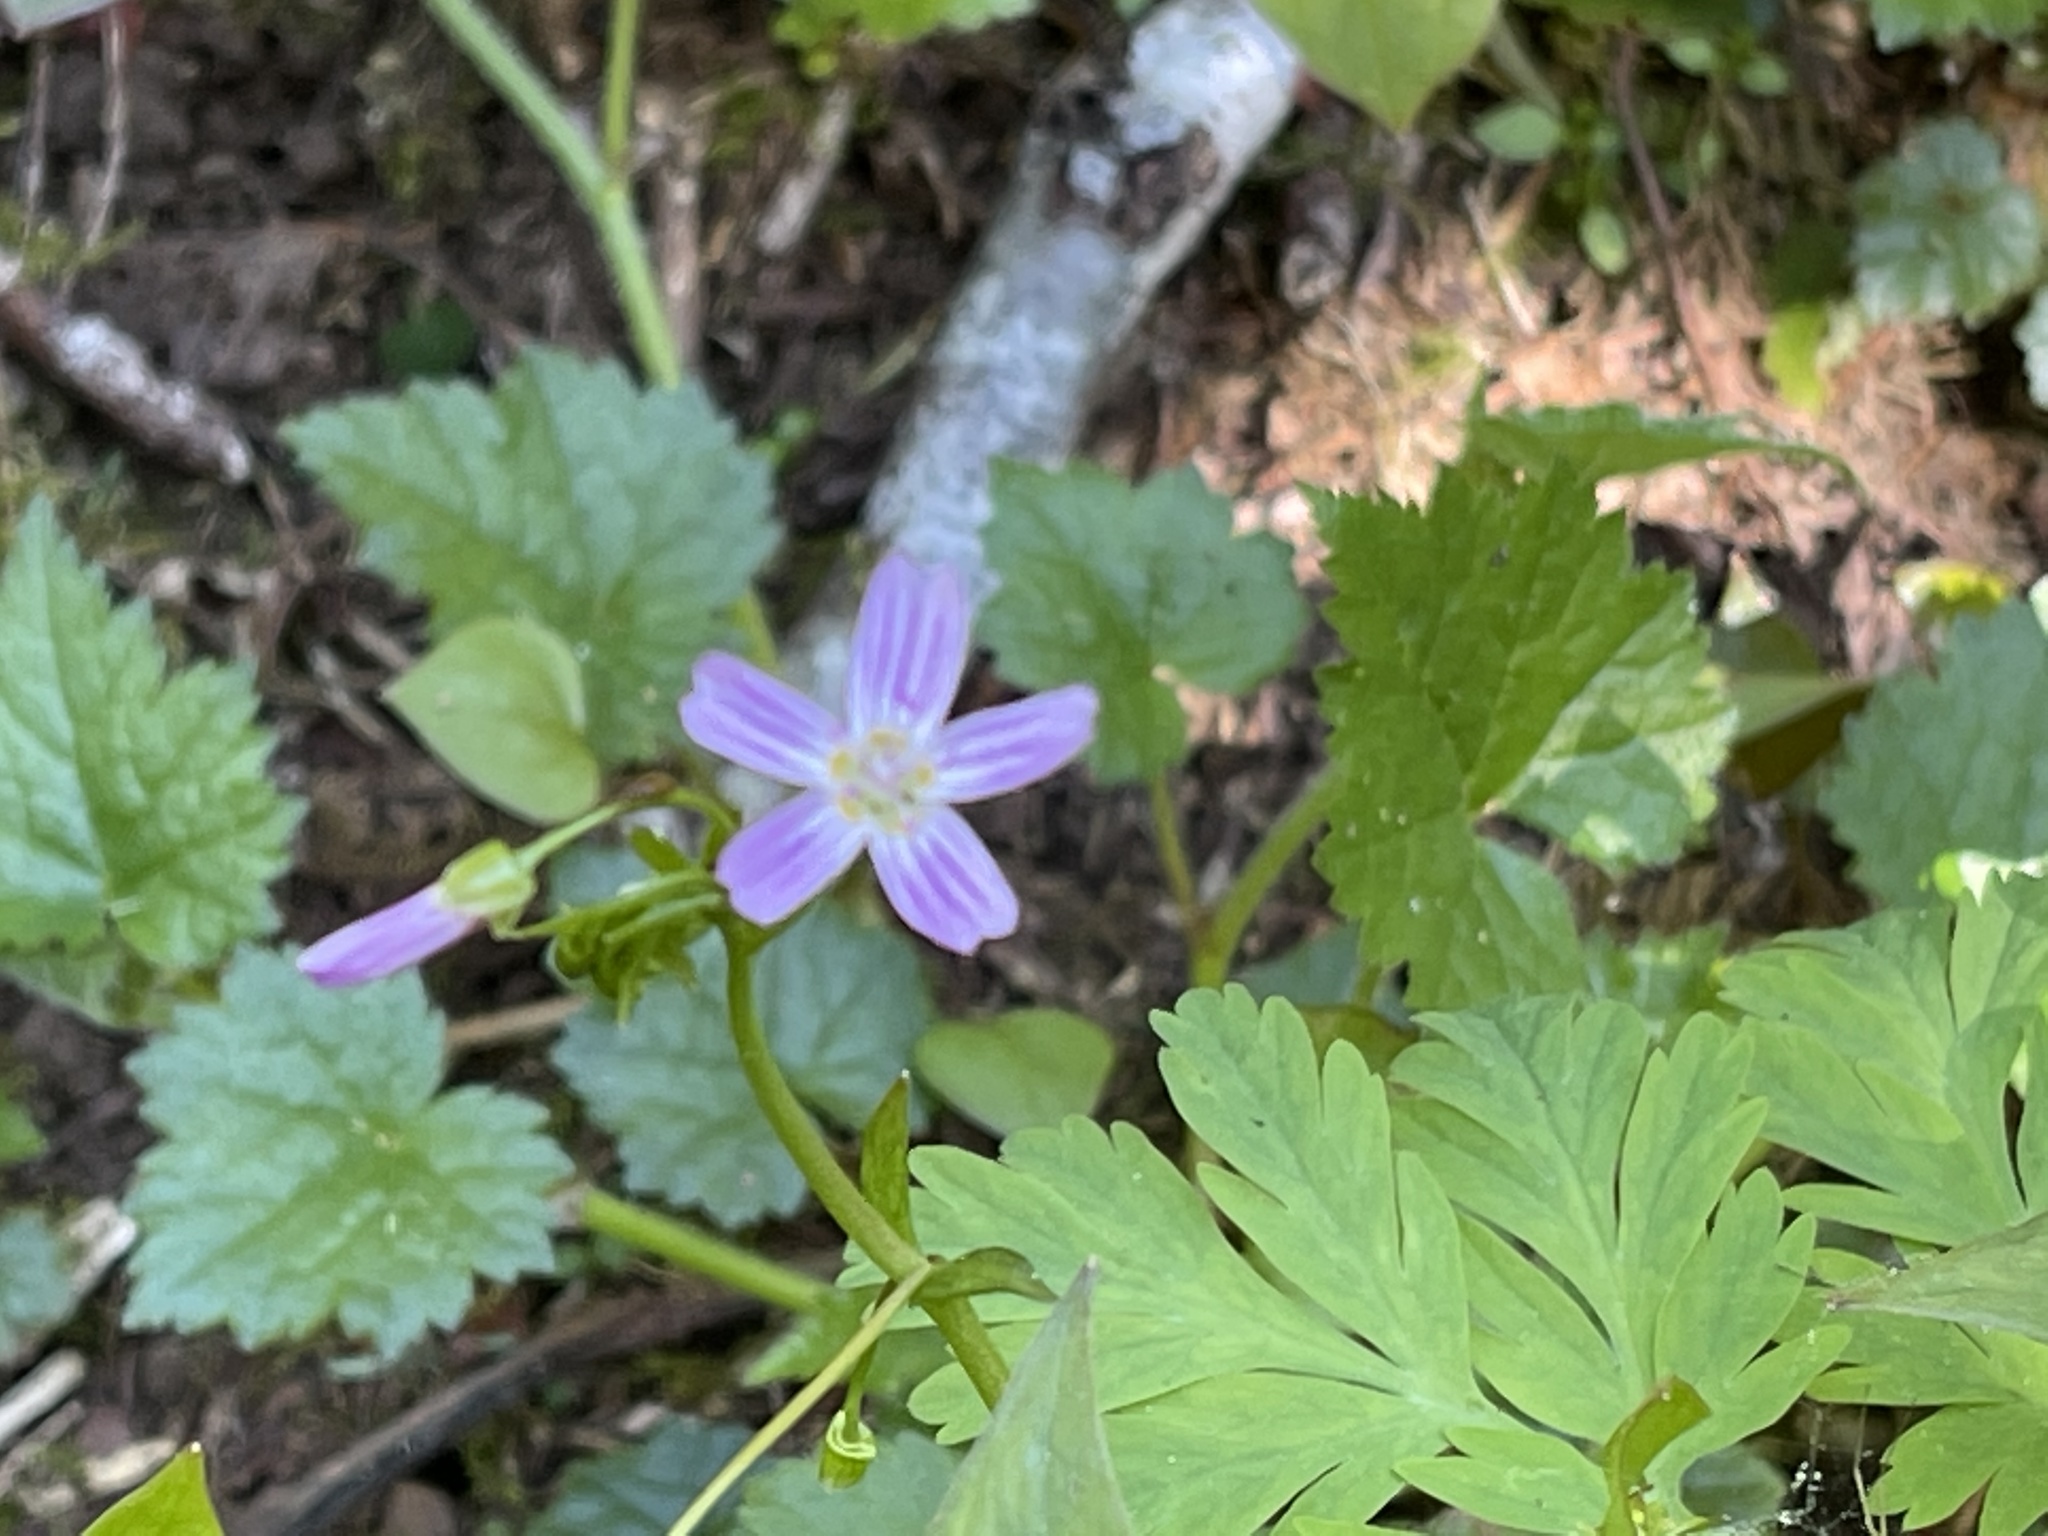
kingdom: Plantae
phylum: Tracheophyta
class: Magnoliopsida
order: Caryophyllales
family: Montiaceae
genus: Claytonia
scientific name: Claytonia sibirica
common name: Pink purslane
